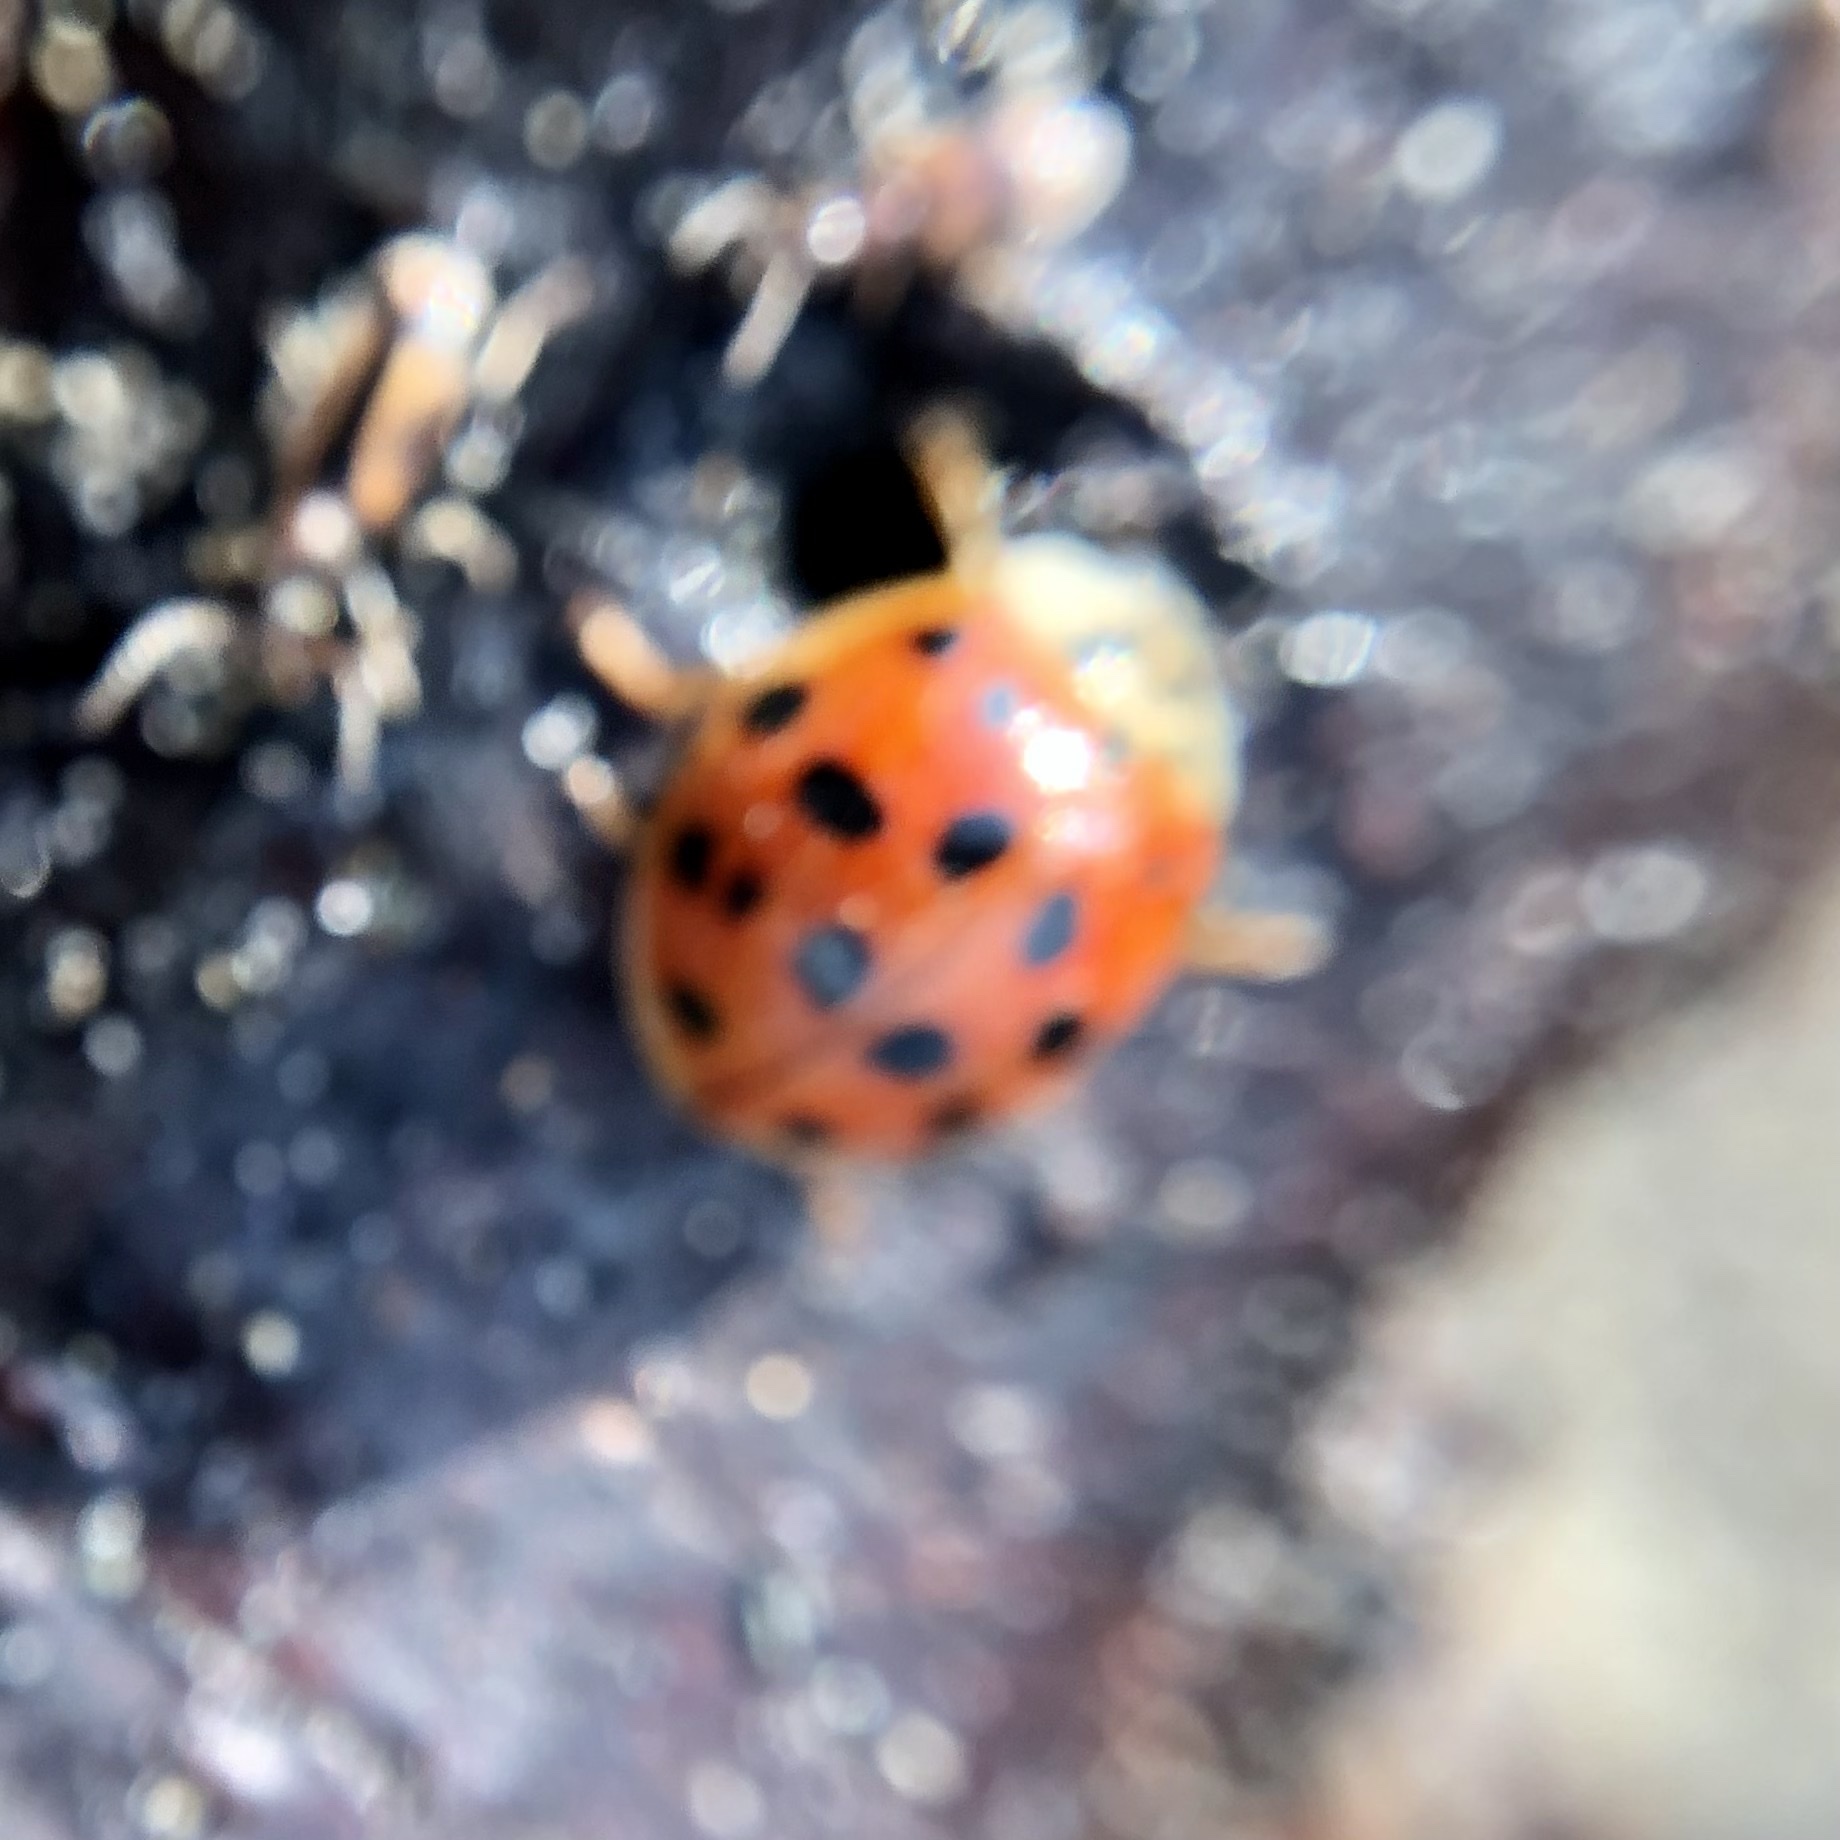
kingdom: Animalia
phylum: Arthropoda
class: Insecta
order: Coleoptera
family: Coccinellidae
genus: Harmonia
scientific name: Harmonia axyridis
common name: Harlequin ladybird
